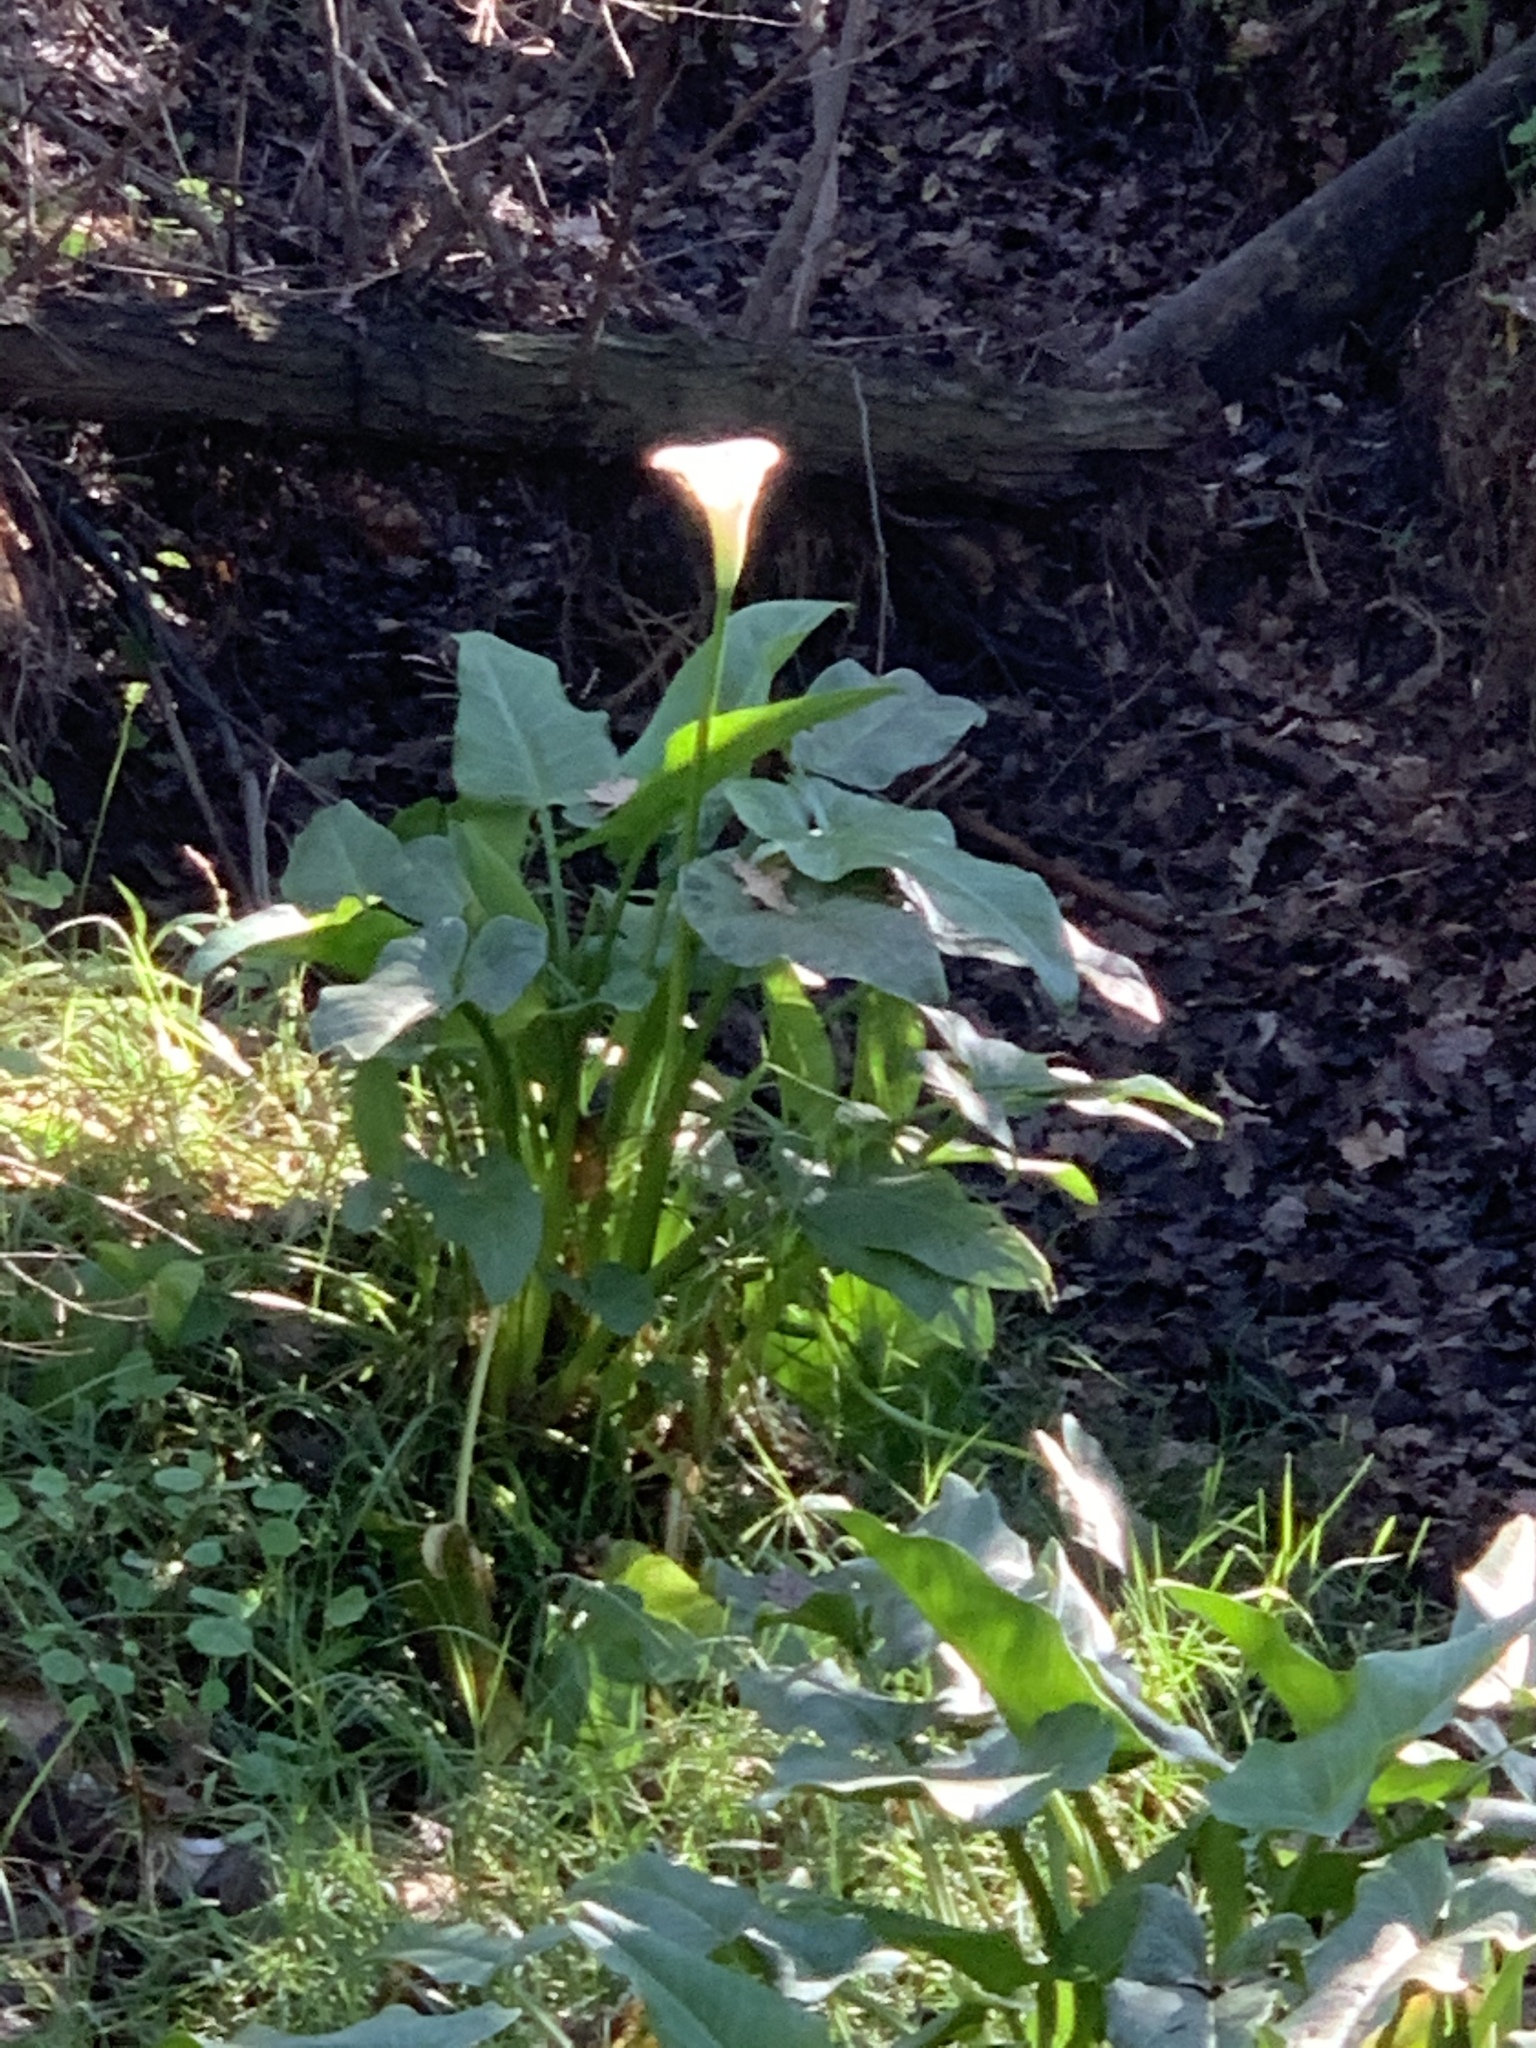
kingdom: Plantae
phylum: Tracheophyta
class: Liliopsida
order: Alismatales
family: Araceae
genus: Zantedeschia
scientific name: Zantedeschia aethiopica
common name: Altar-lily
